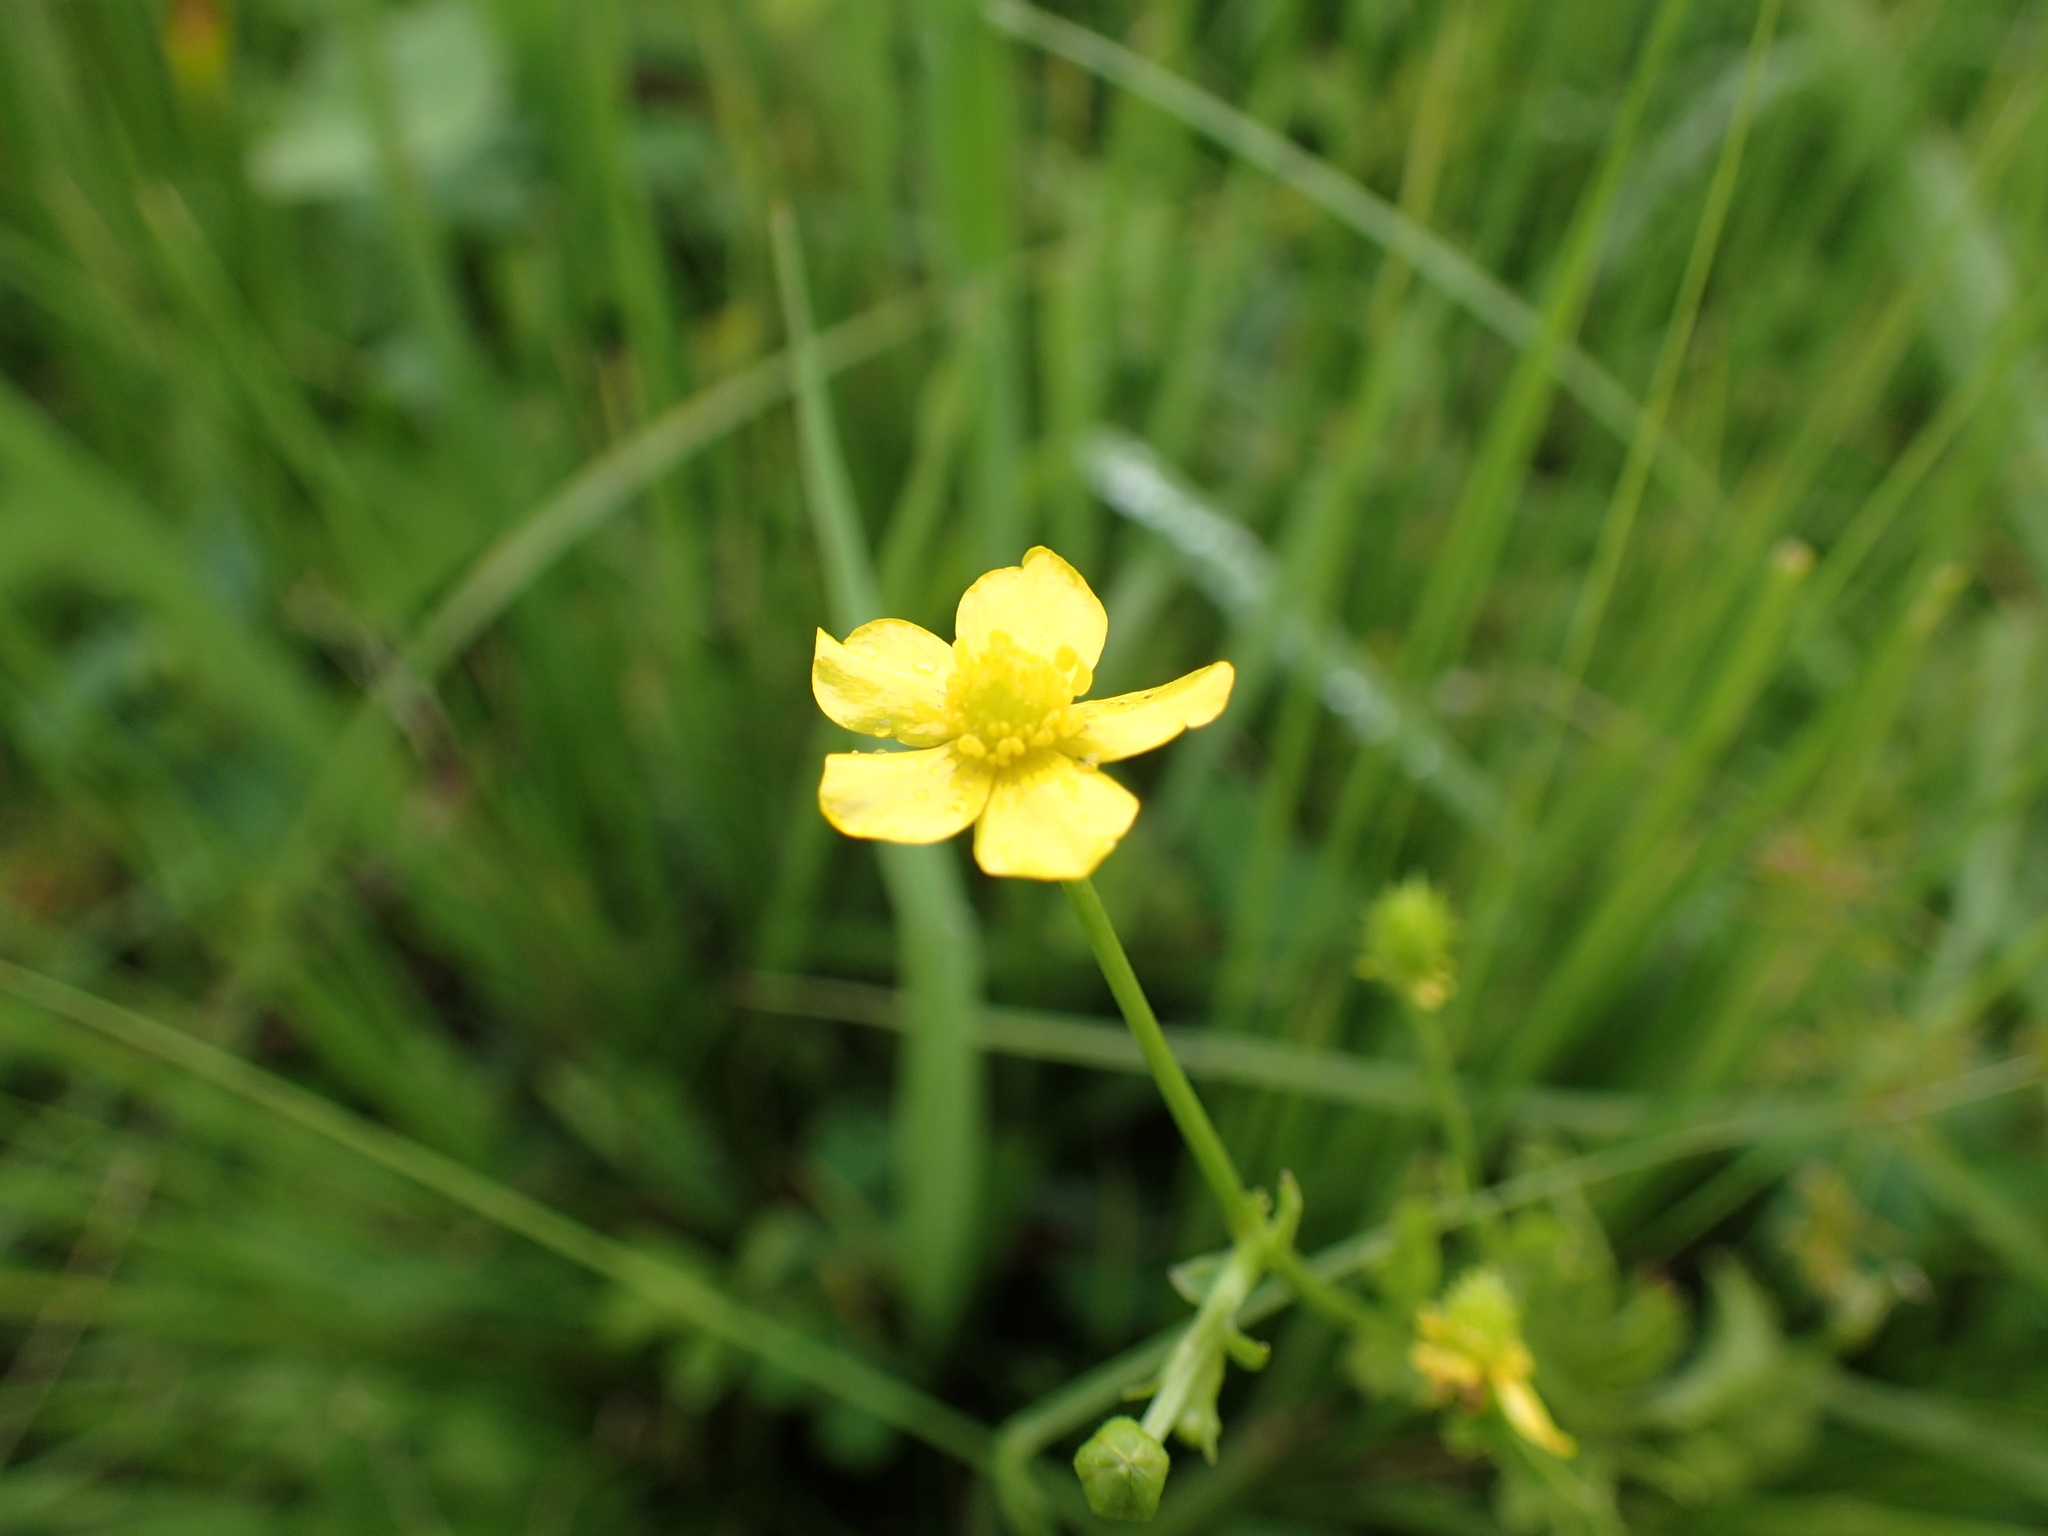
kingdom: Plantae
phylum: Tracheophyta
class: Magnoliopsida
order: Ranunculales
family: Ranunculaceae
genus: Ranunculus
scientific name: Ranunculus multifidus
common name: Wild buttercup
